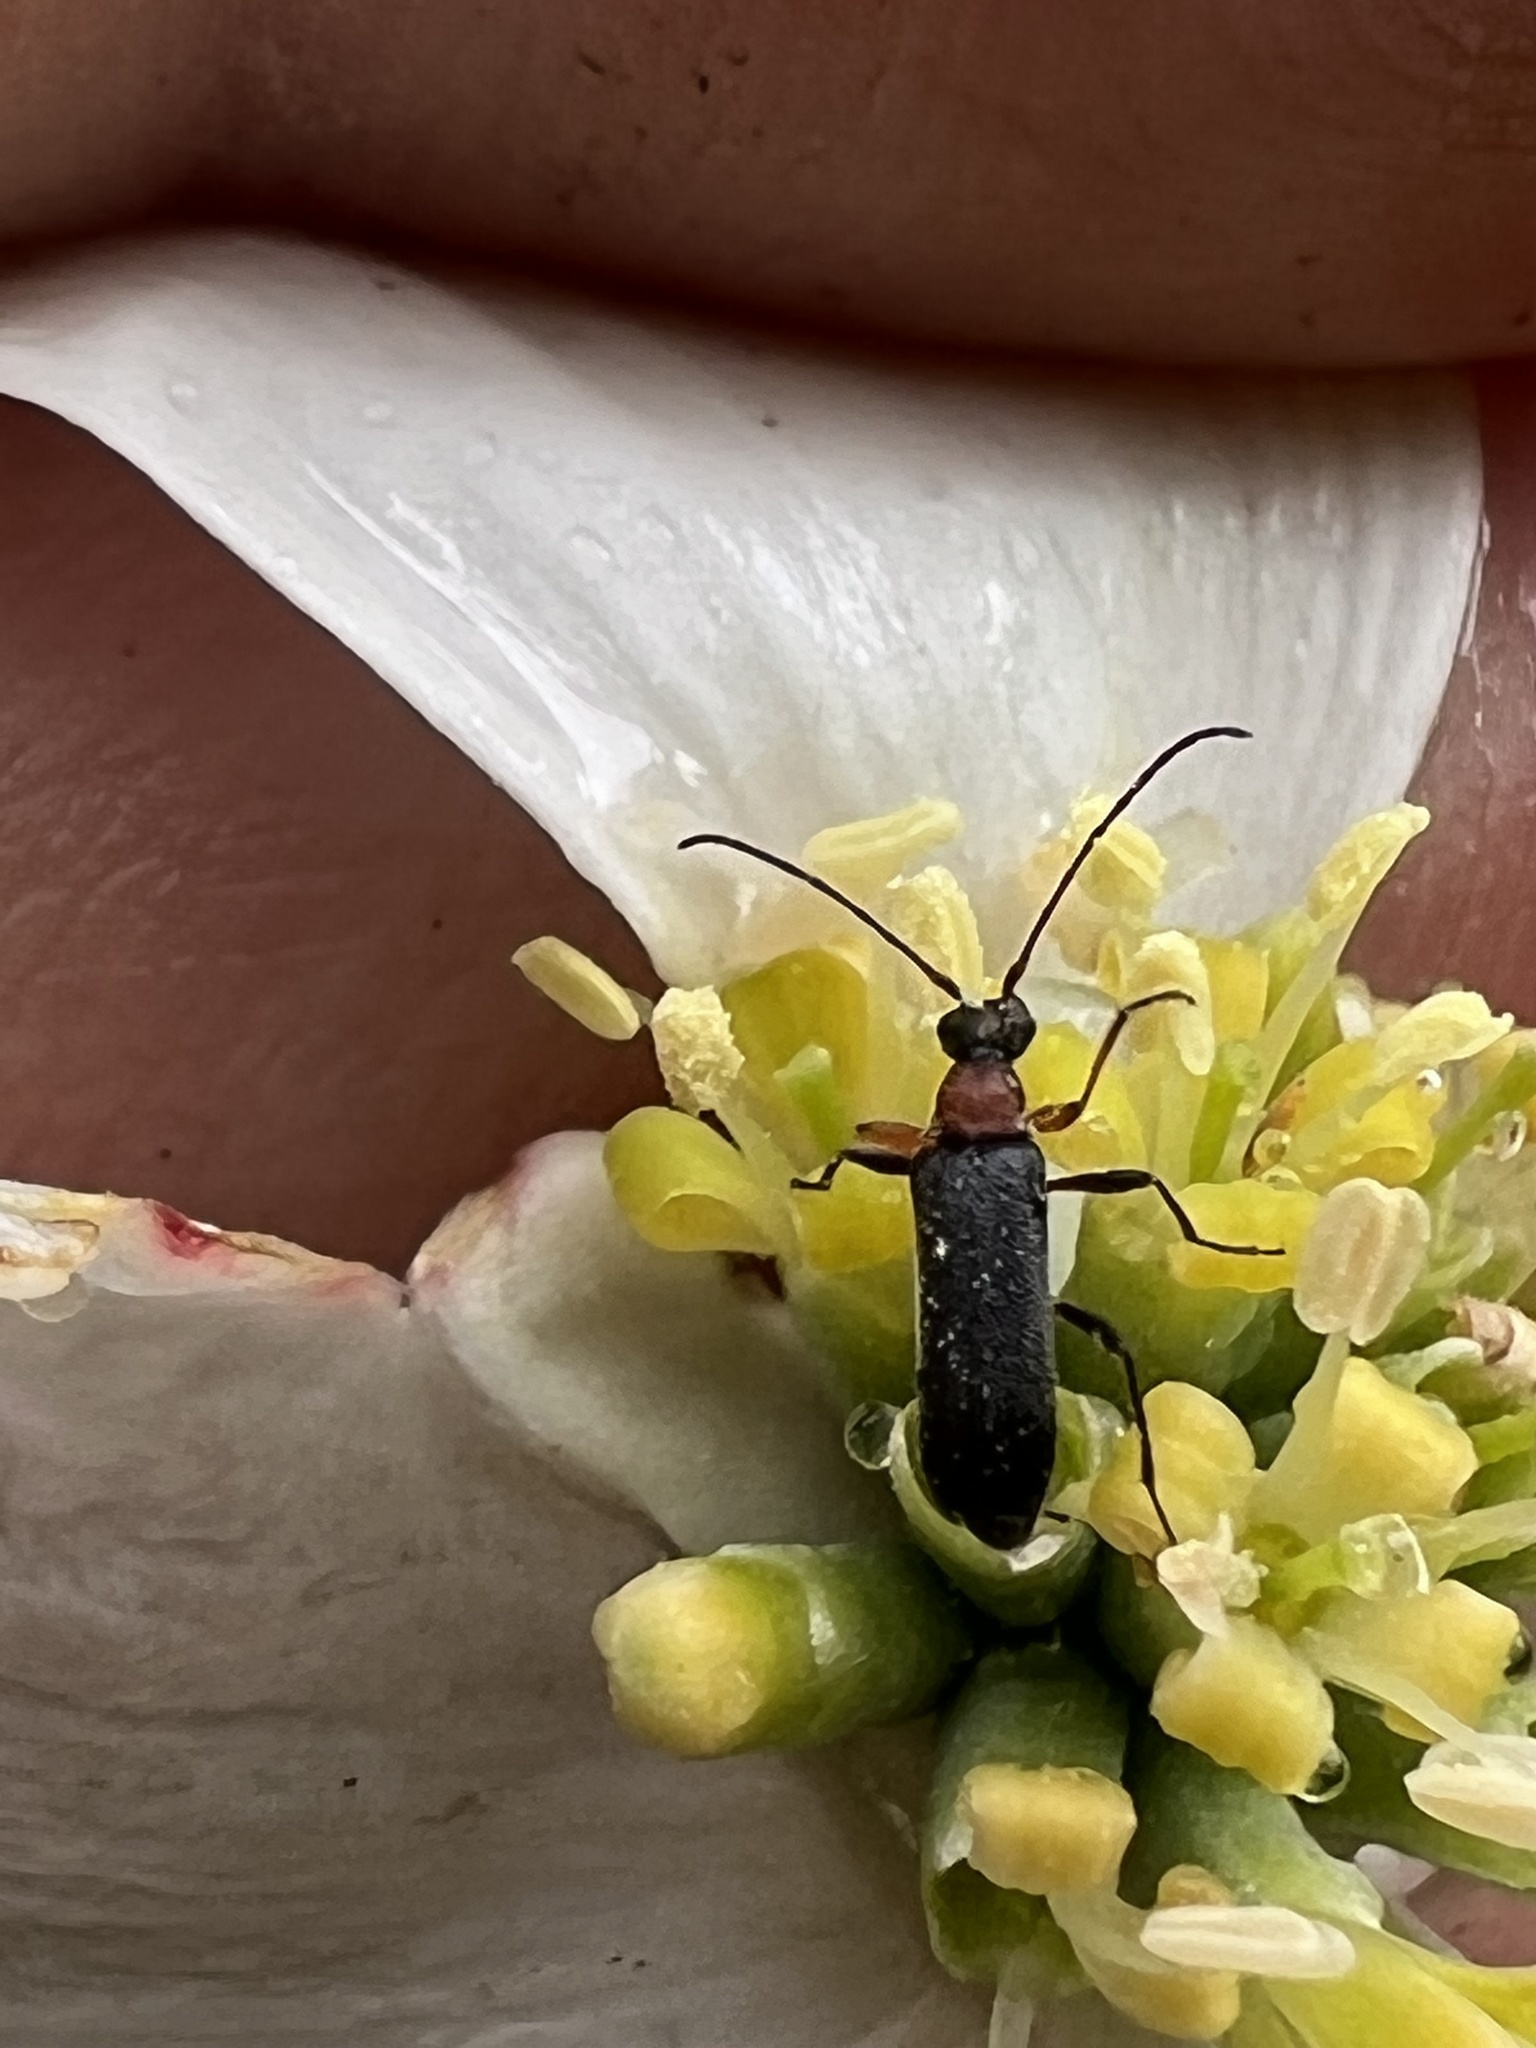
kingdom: Animalia
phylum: Arthropoda
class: Insecta
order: Coleoptera
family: Cerambycidae
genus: Grammoptera
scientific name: Grammoptera haematites
